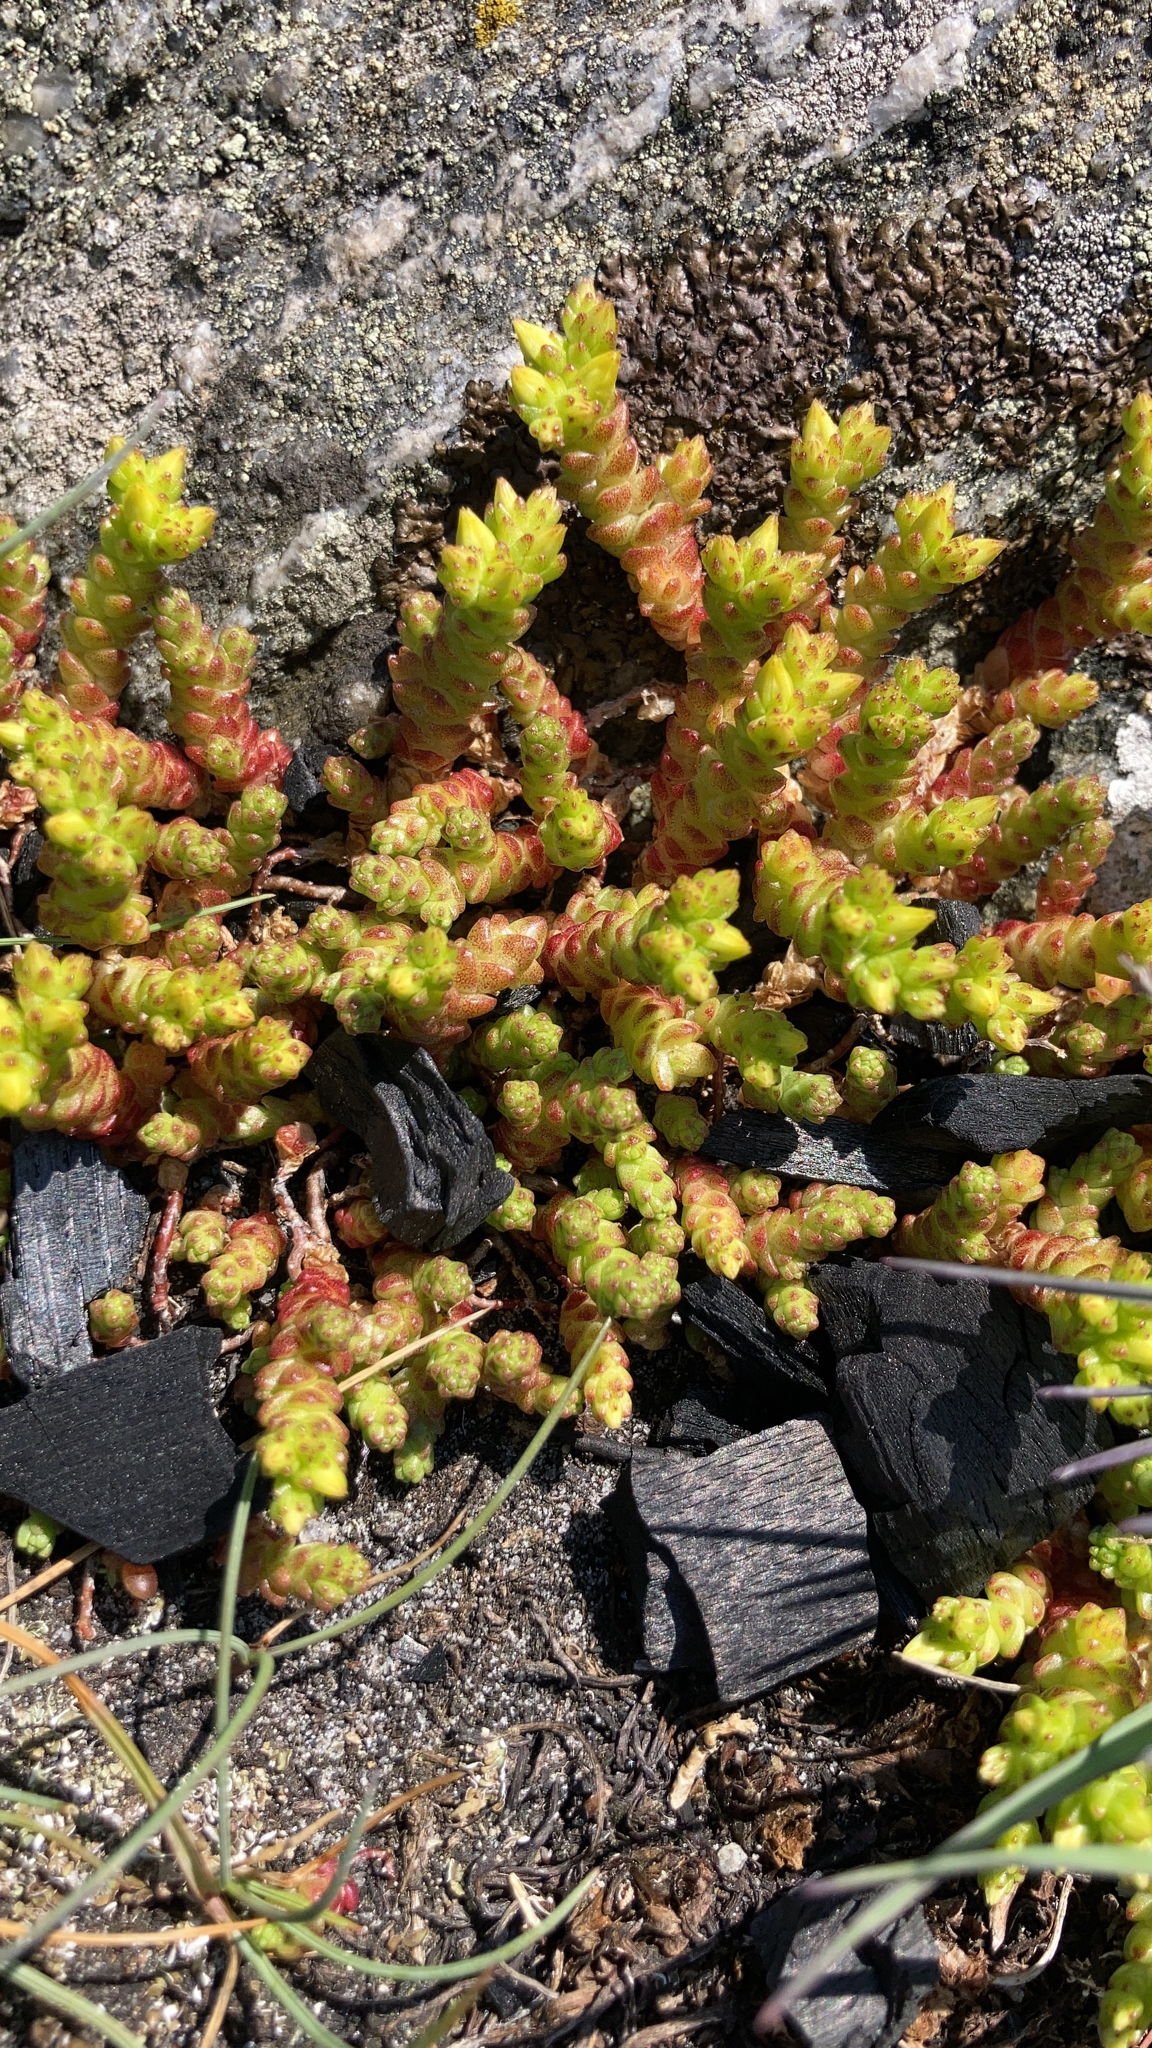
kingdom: Plantae
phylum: Tracheophyta
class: Magnoliopsida
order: Saxifragales
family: Crassulaceae
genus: Sedum
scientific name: Sedum acre
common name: Biting stonecrop
